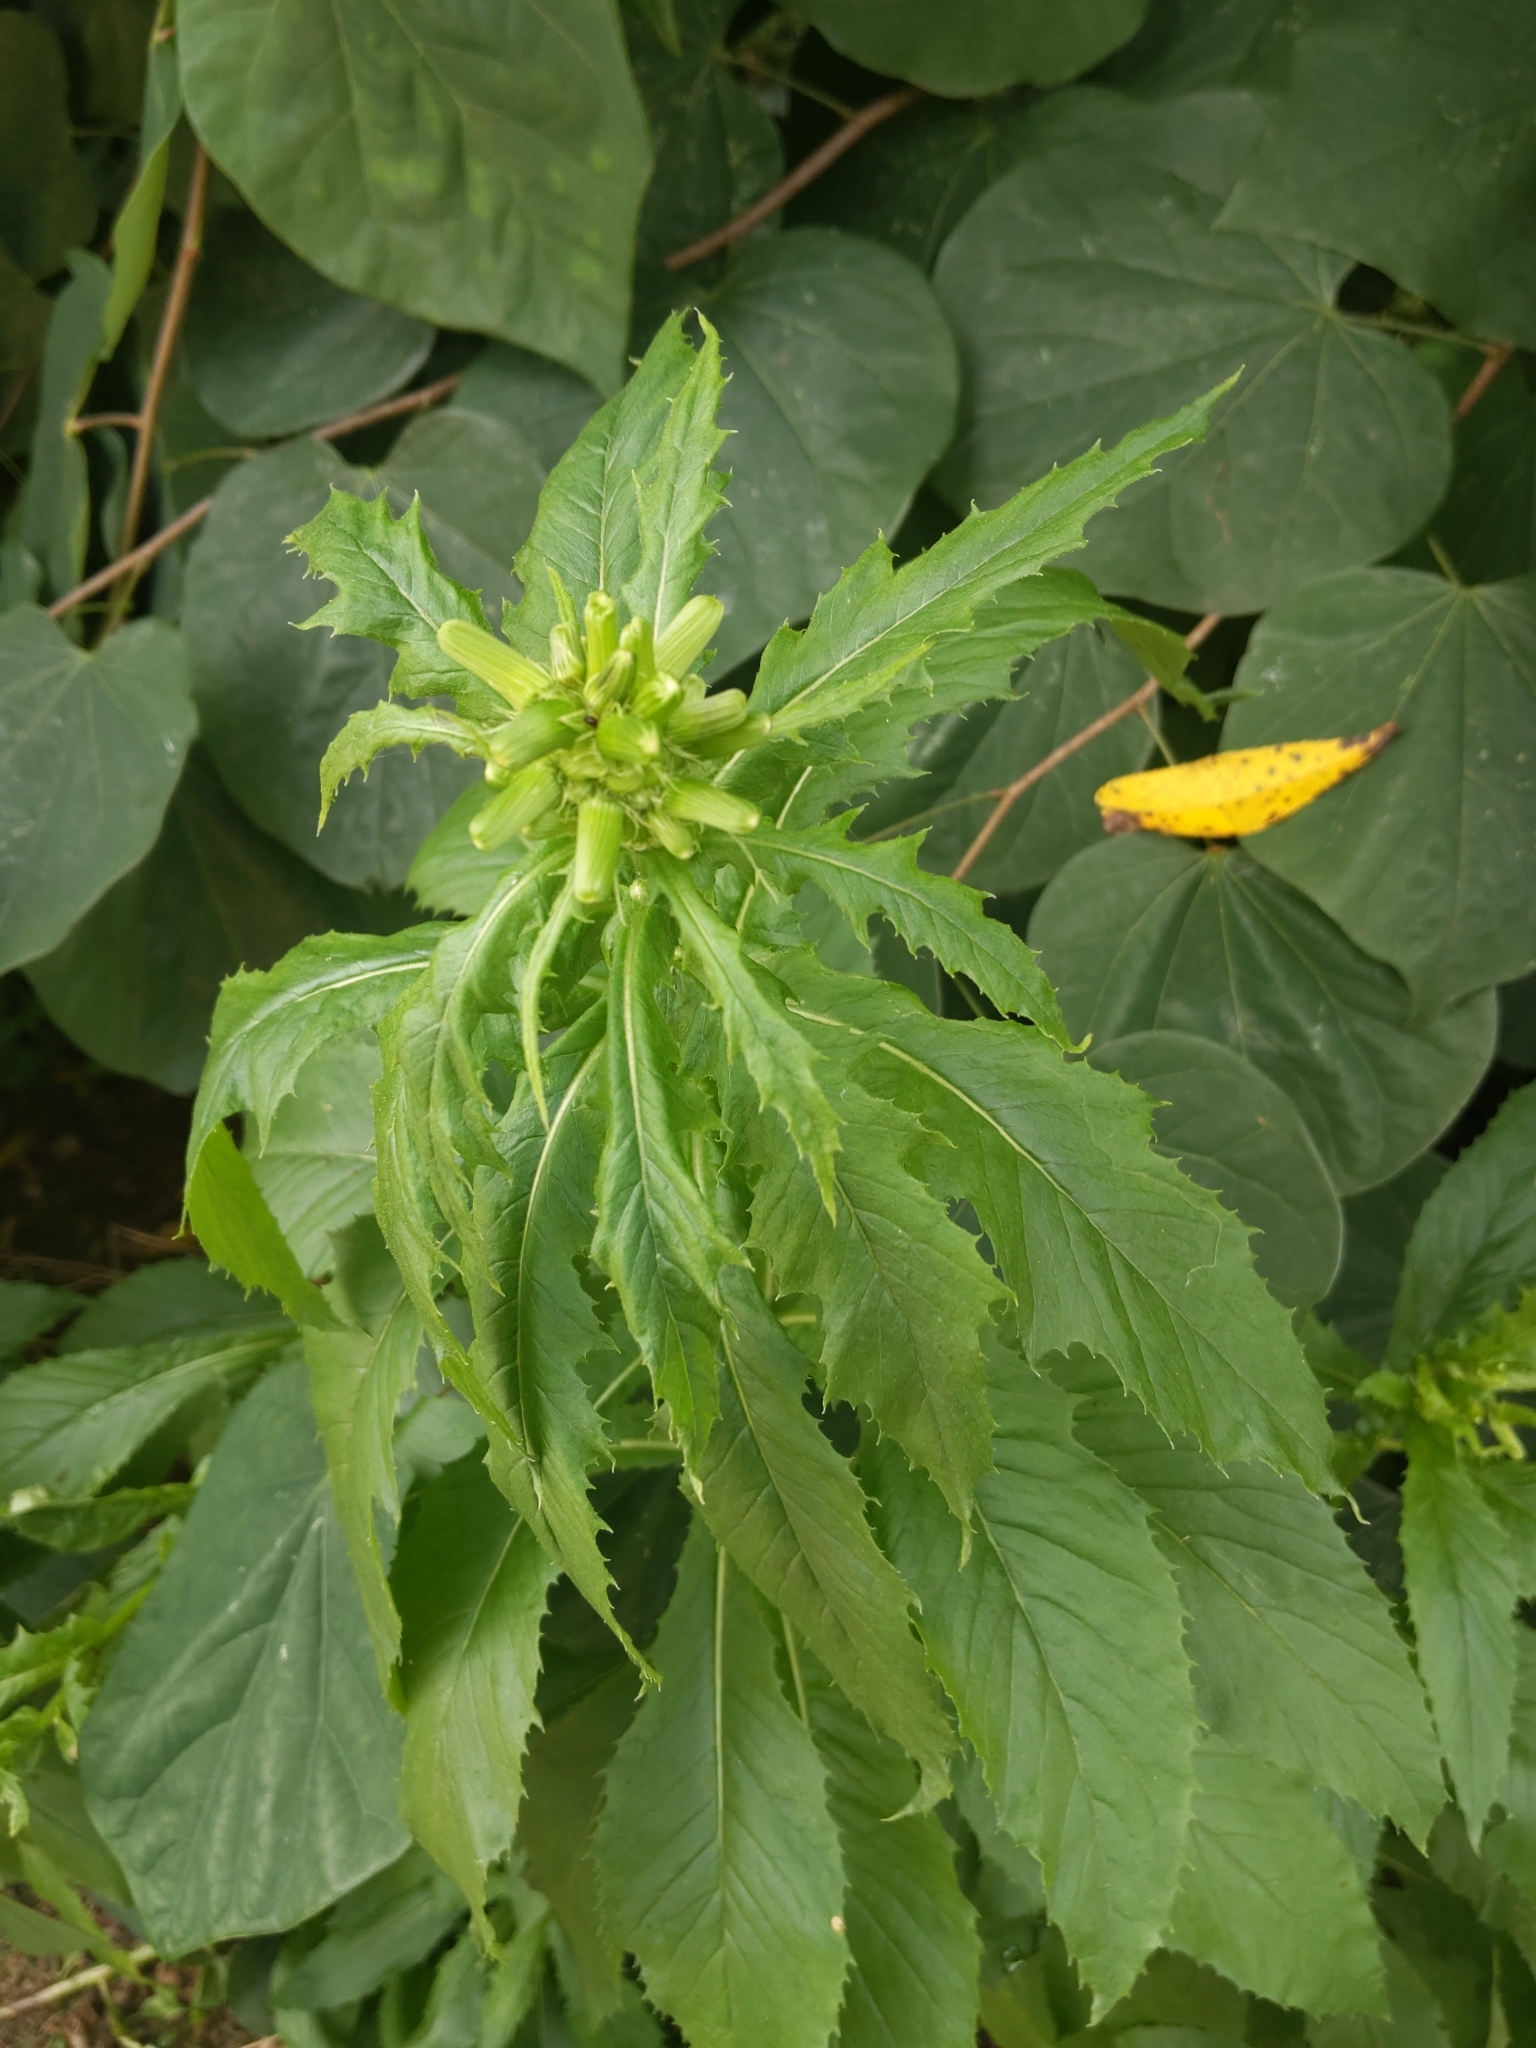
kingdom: Plantae
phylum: Tracheophyta
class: Magnoliopsida
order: Asterales
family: Asteraceae
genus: Erechtites
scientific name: Erechtites hieraciifolius
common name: American burnweed
